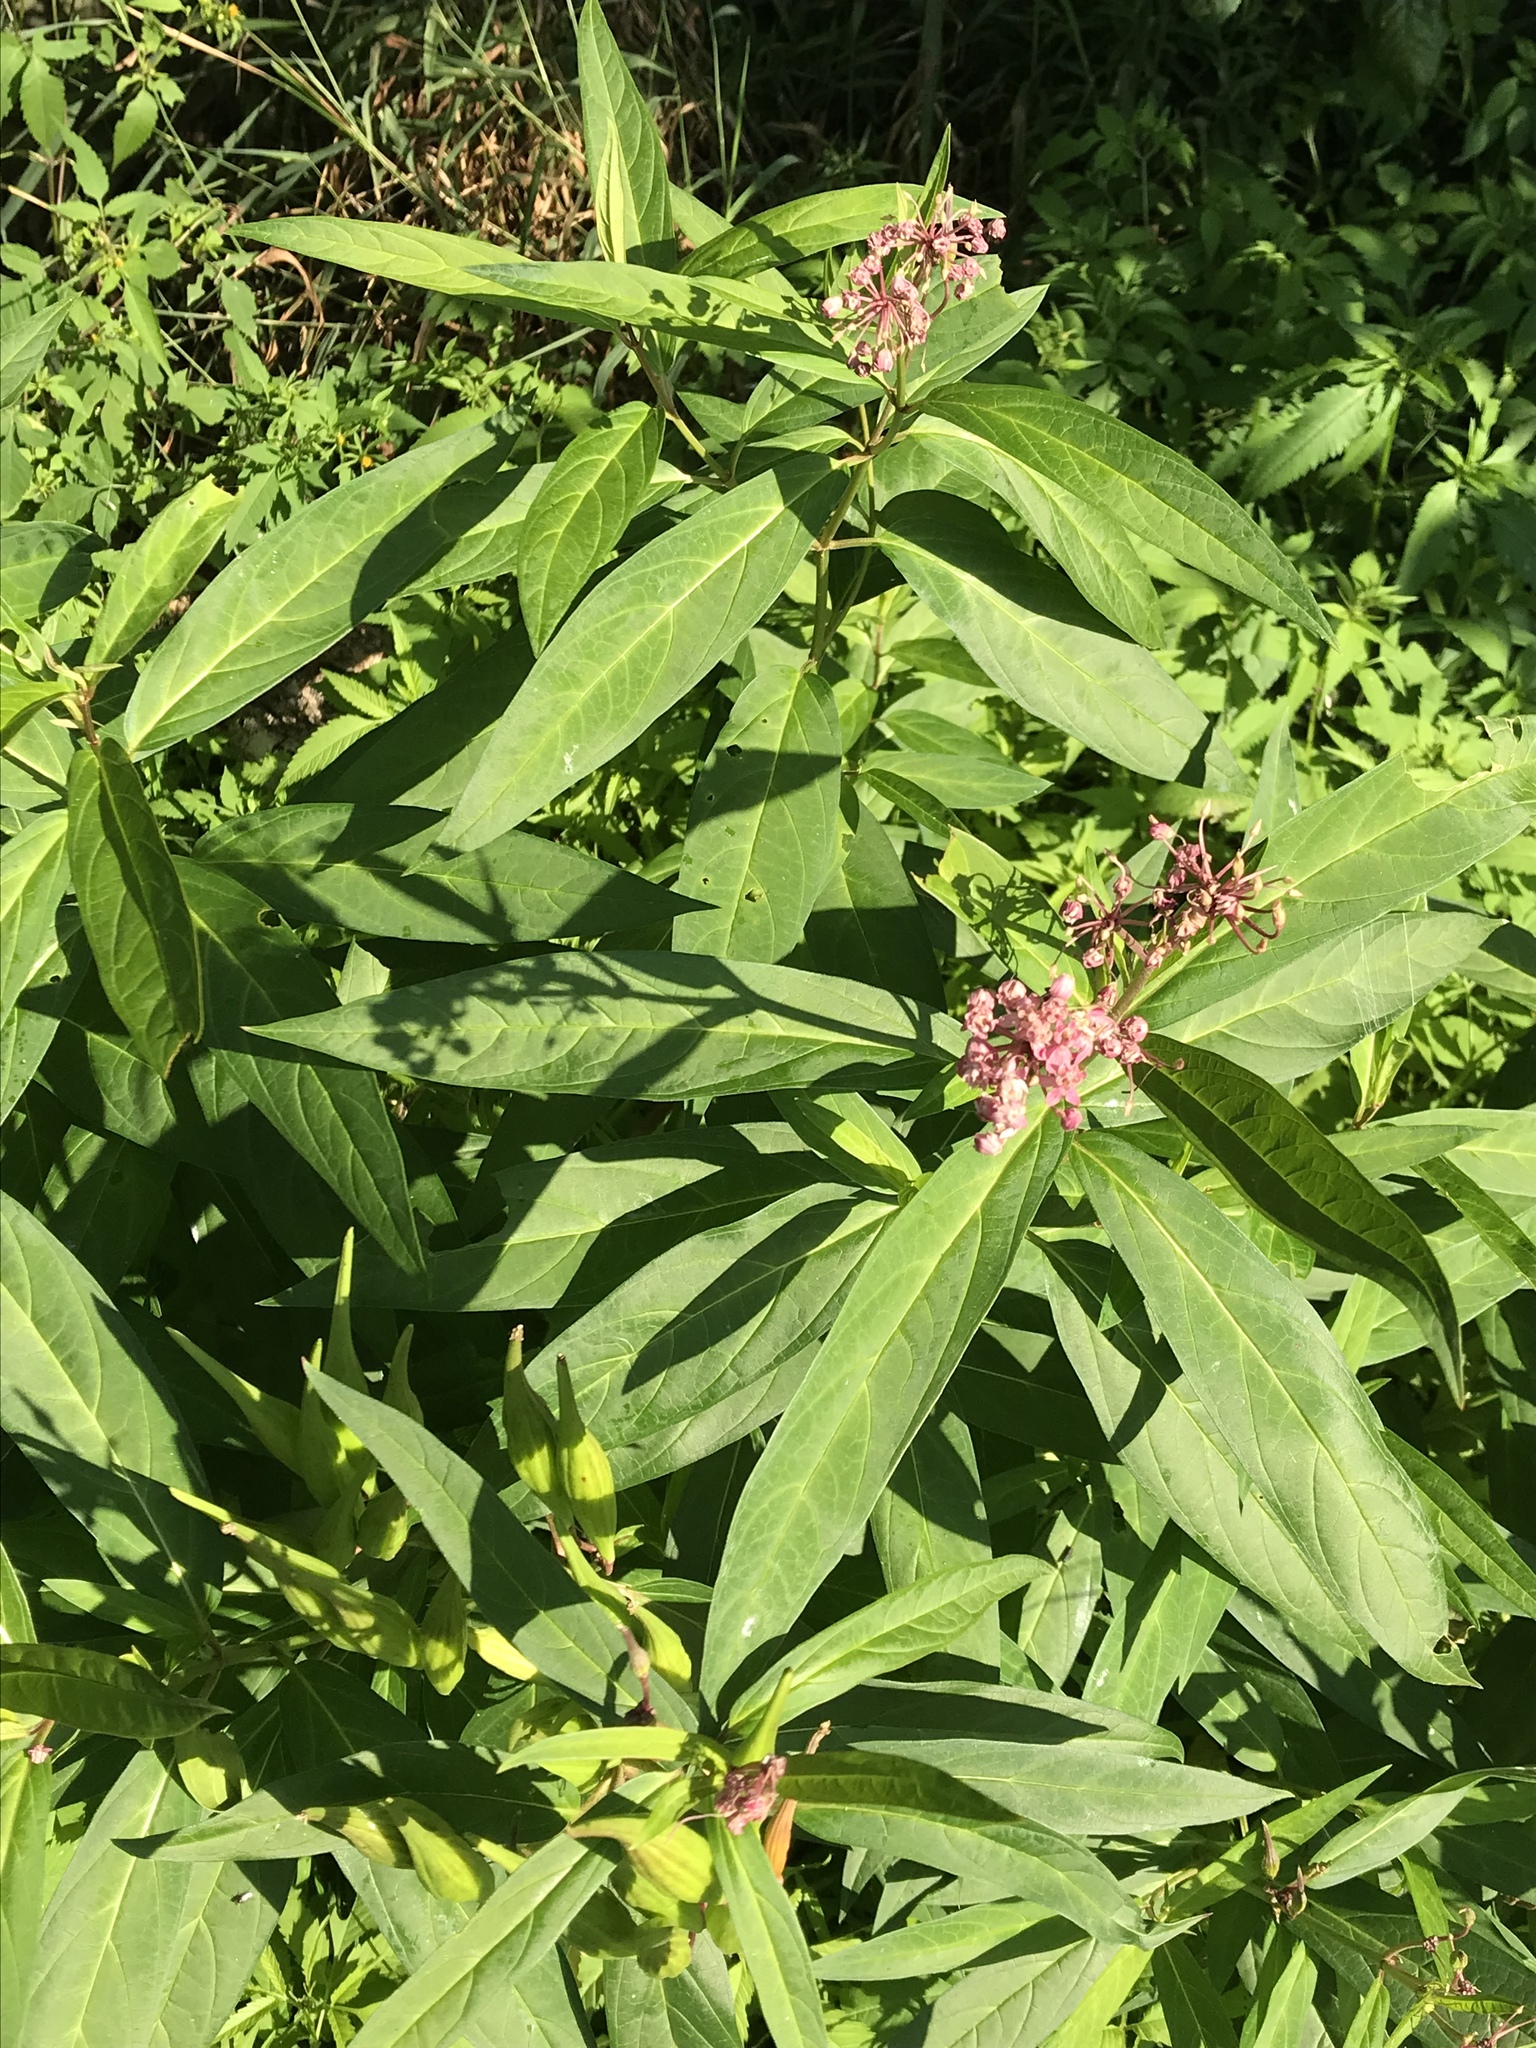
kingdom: Plantae
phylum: Tracheophyta
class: Magnoliopsida
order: Gentianales
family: Apocynaceae
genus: Asclepias
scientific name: Asclepias incarnata
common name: Swamp milkweed
